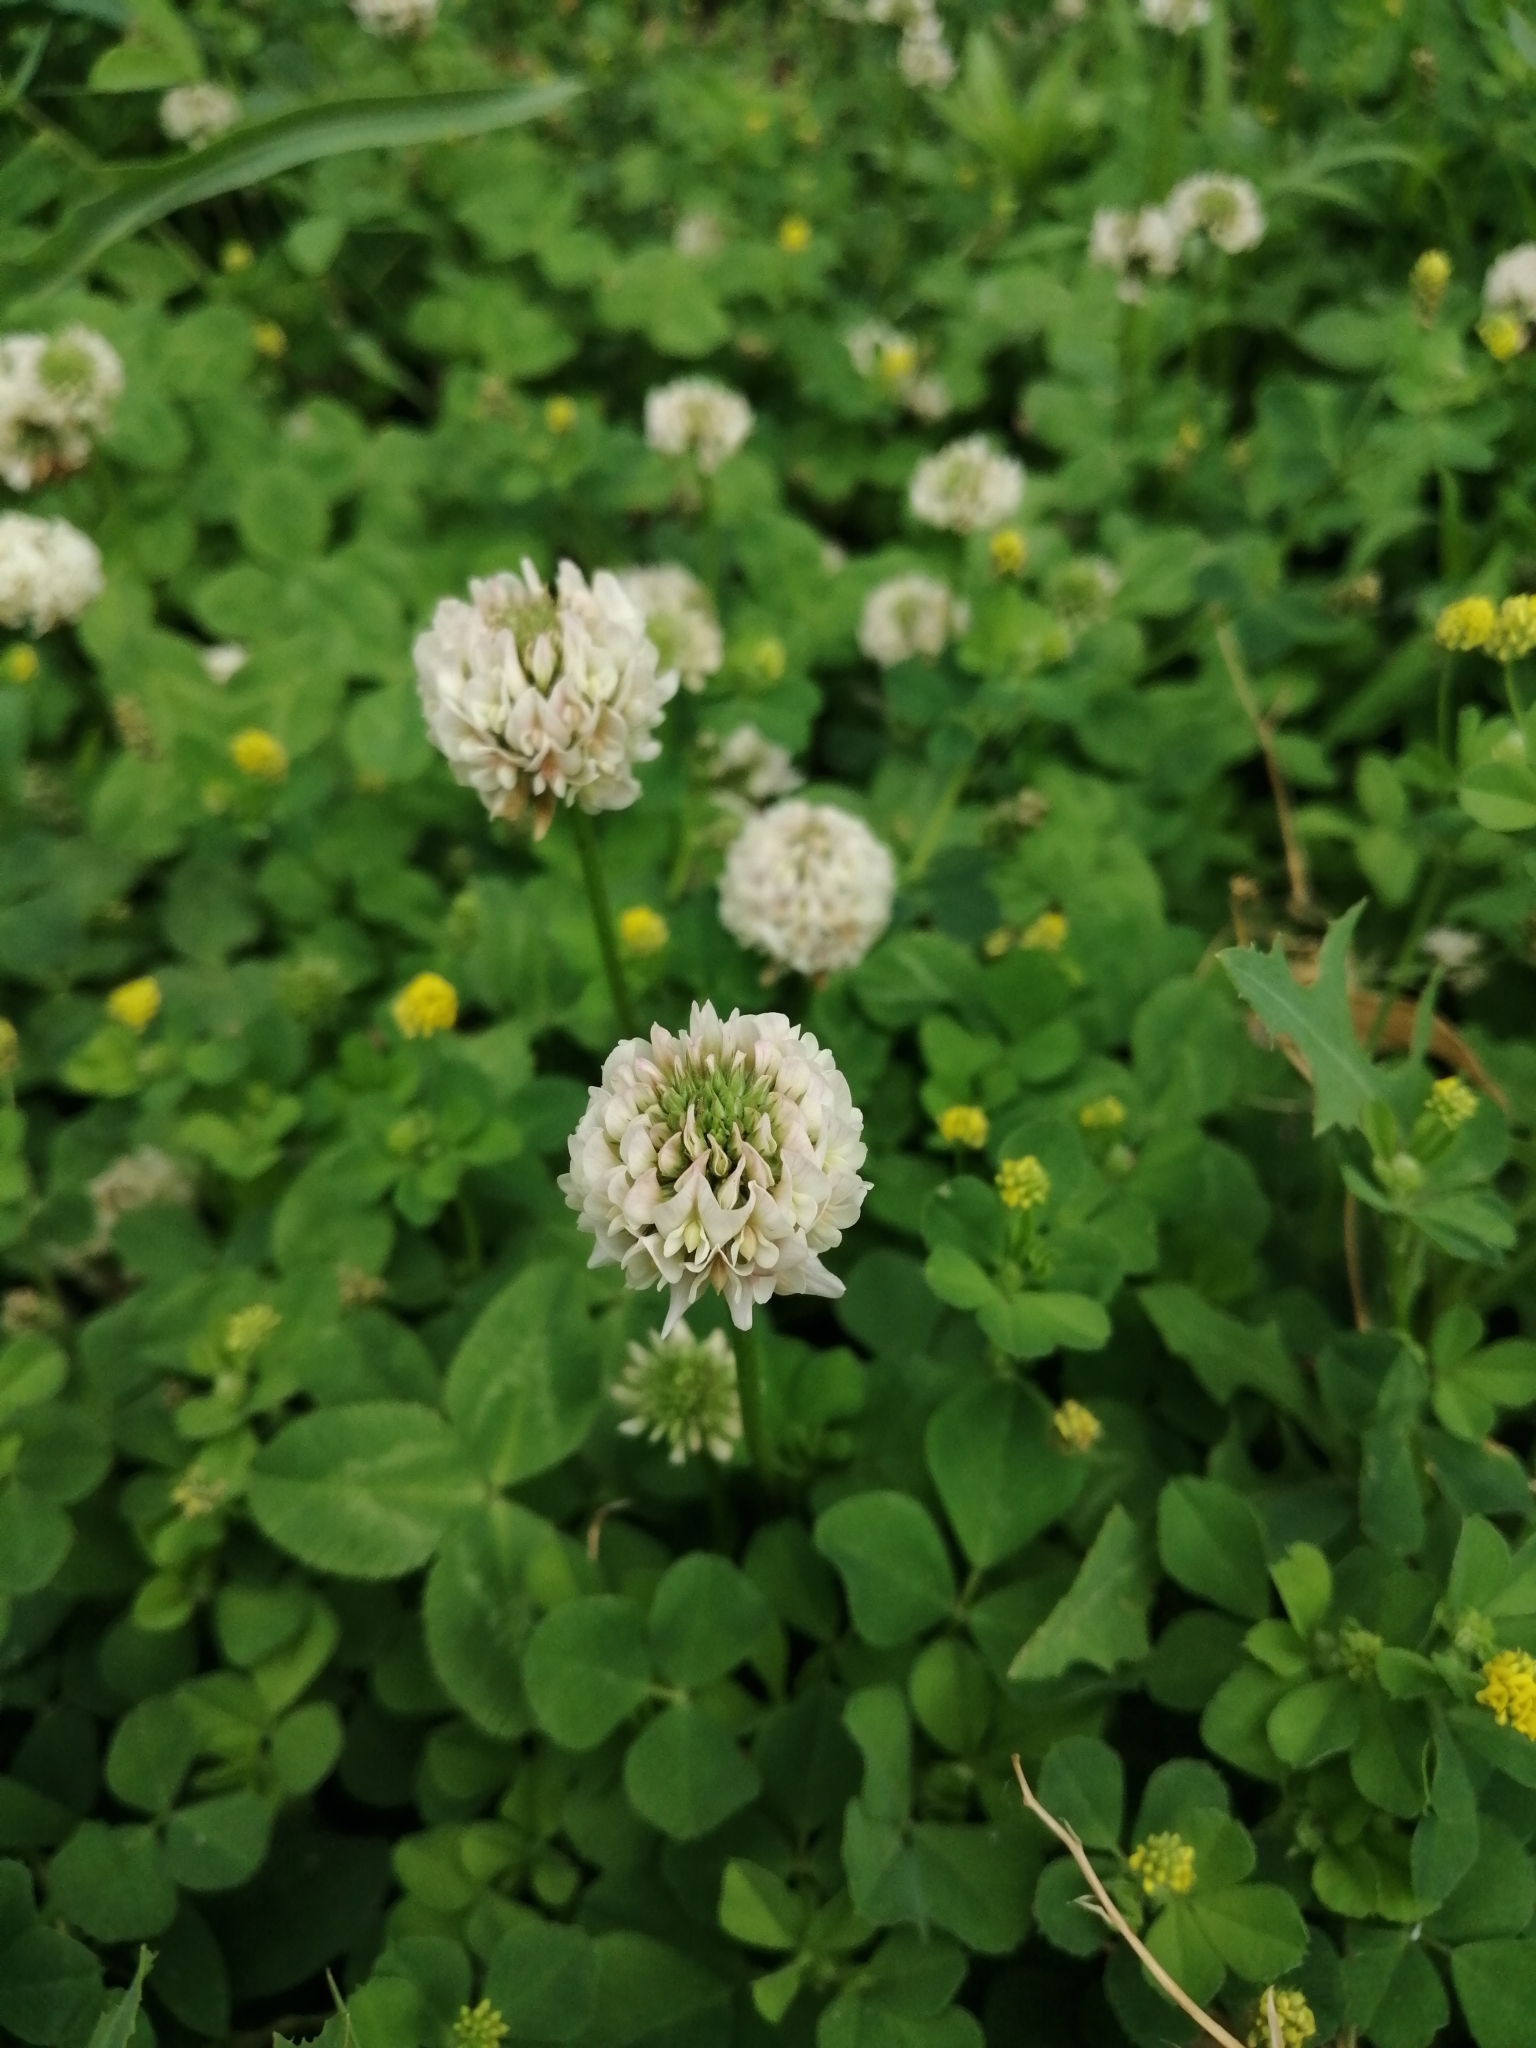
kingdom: Plantae
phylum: Tracheophyta
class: Magnoliopsida
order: Fabales
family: Fabaceae
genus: Trifolium
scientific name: Trifolium repens
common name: White clover
